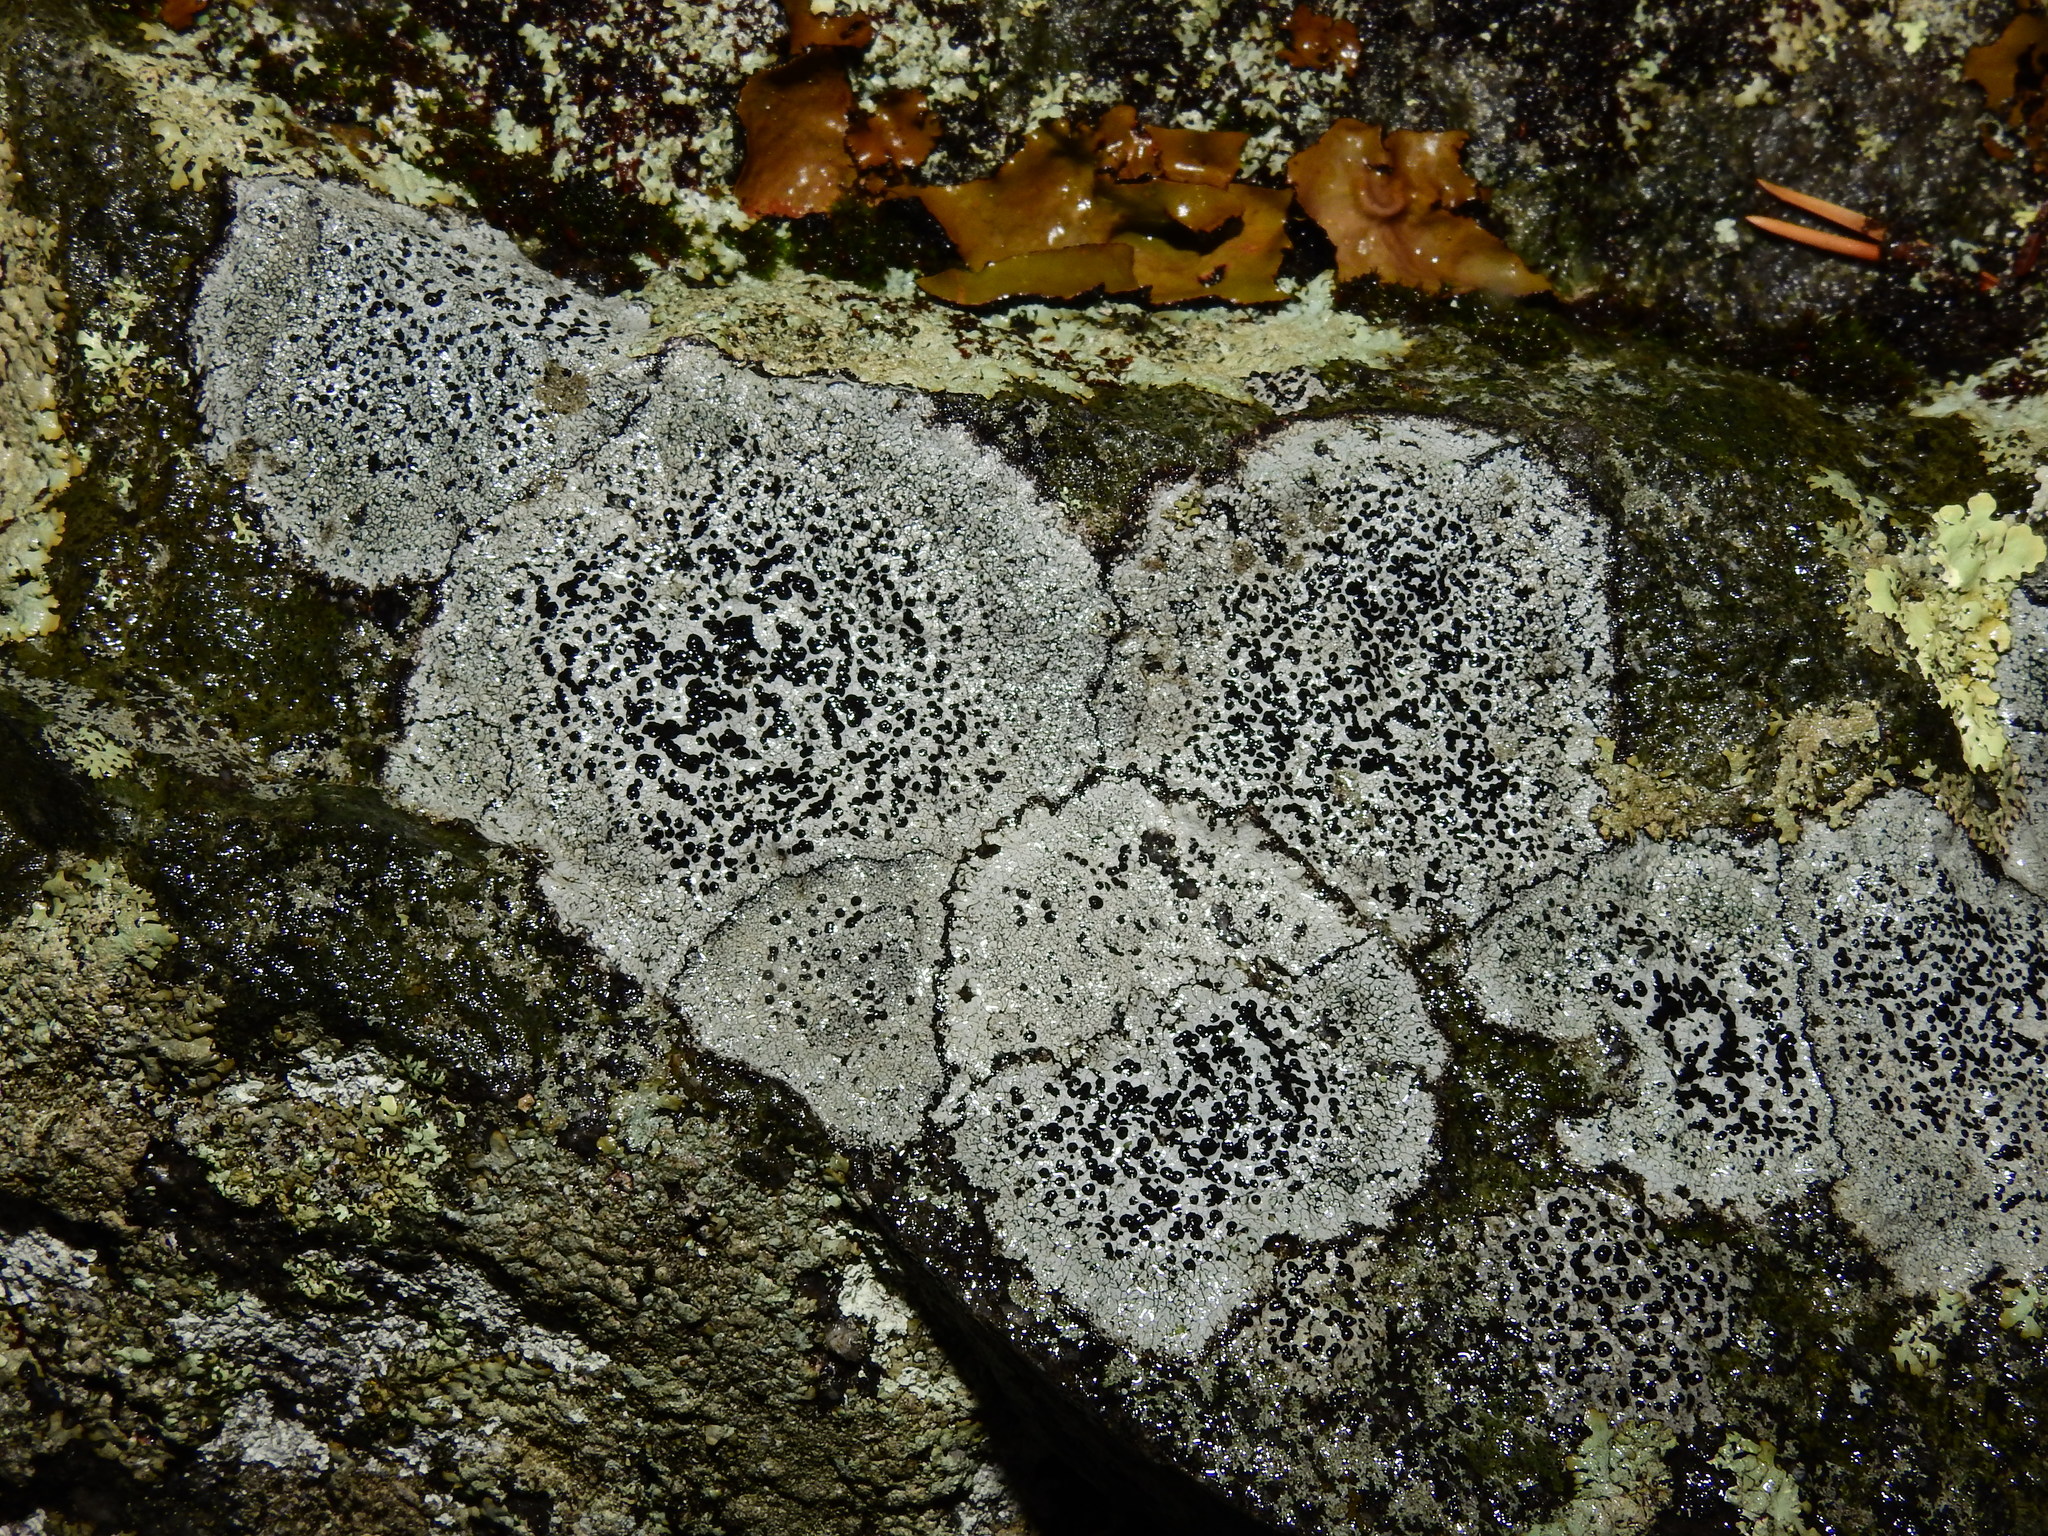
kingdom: Fungi
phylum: Ascomycota
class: Lecanoromycetes
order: Lecideales
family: Lecideaceae
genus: Porpidia
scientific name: Porpidia crustulata
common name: Concentric boulder lichen
